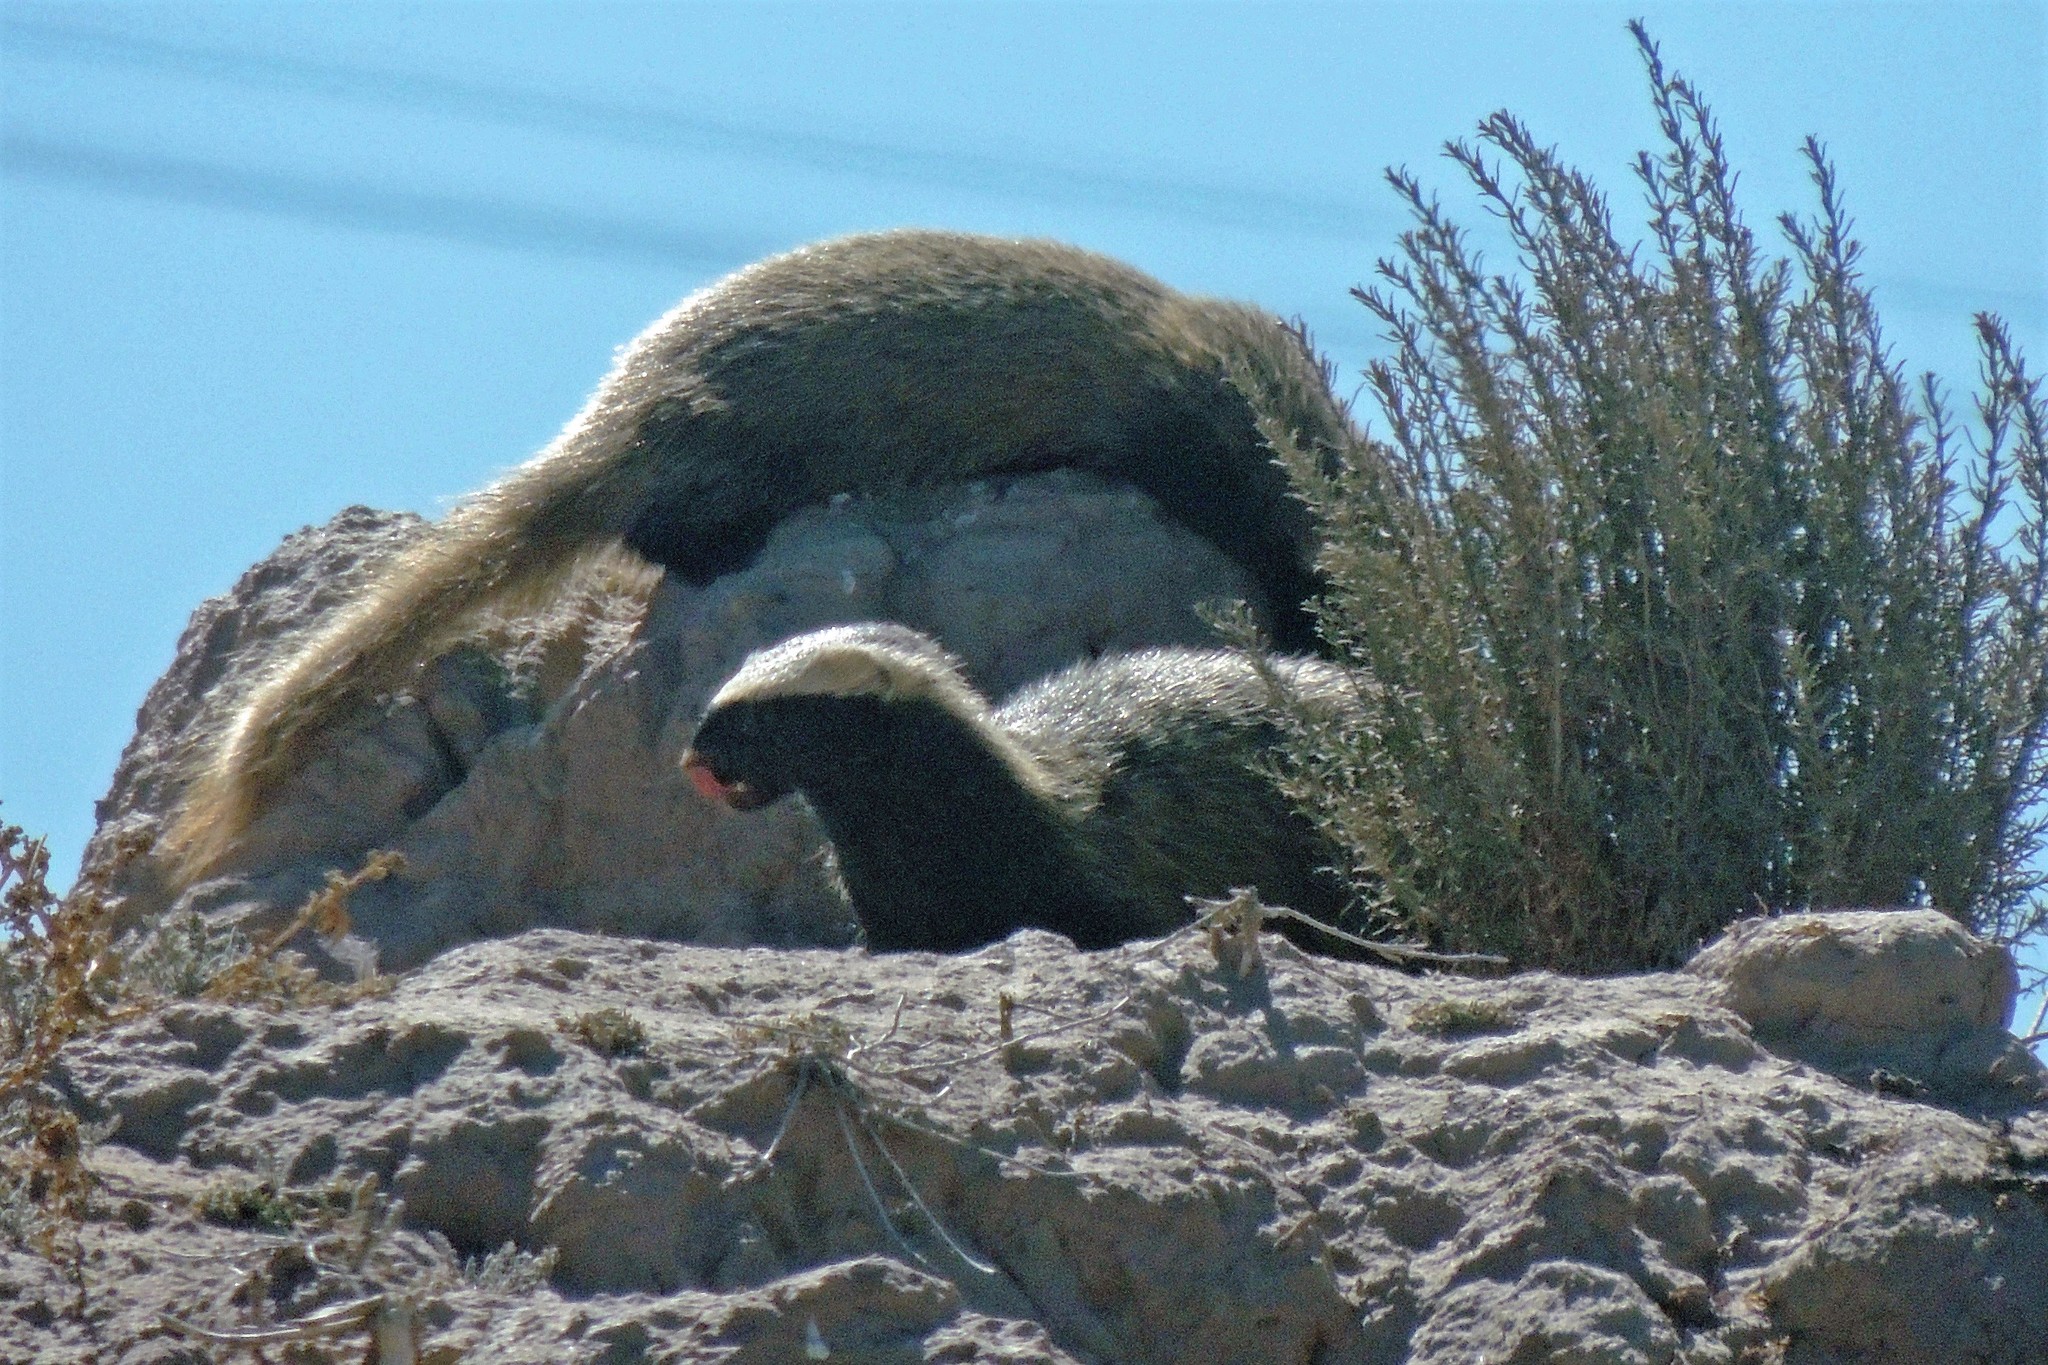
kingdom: Animalia
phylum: Chordata
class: Mammalia
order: Carnivora
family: Mustelidae
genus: Galictis
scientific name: Galictis cuja
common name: Lesser grison
